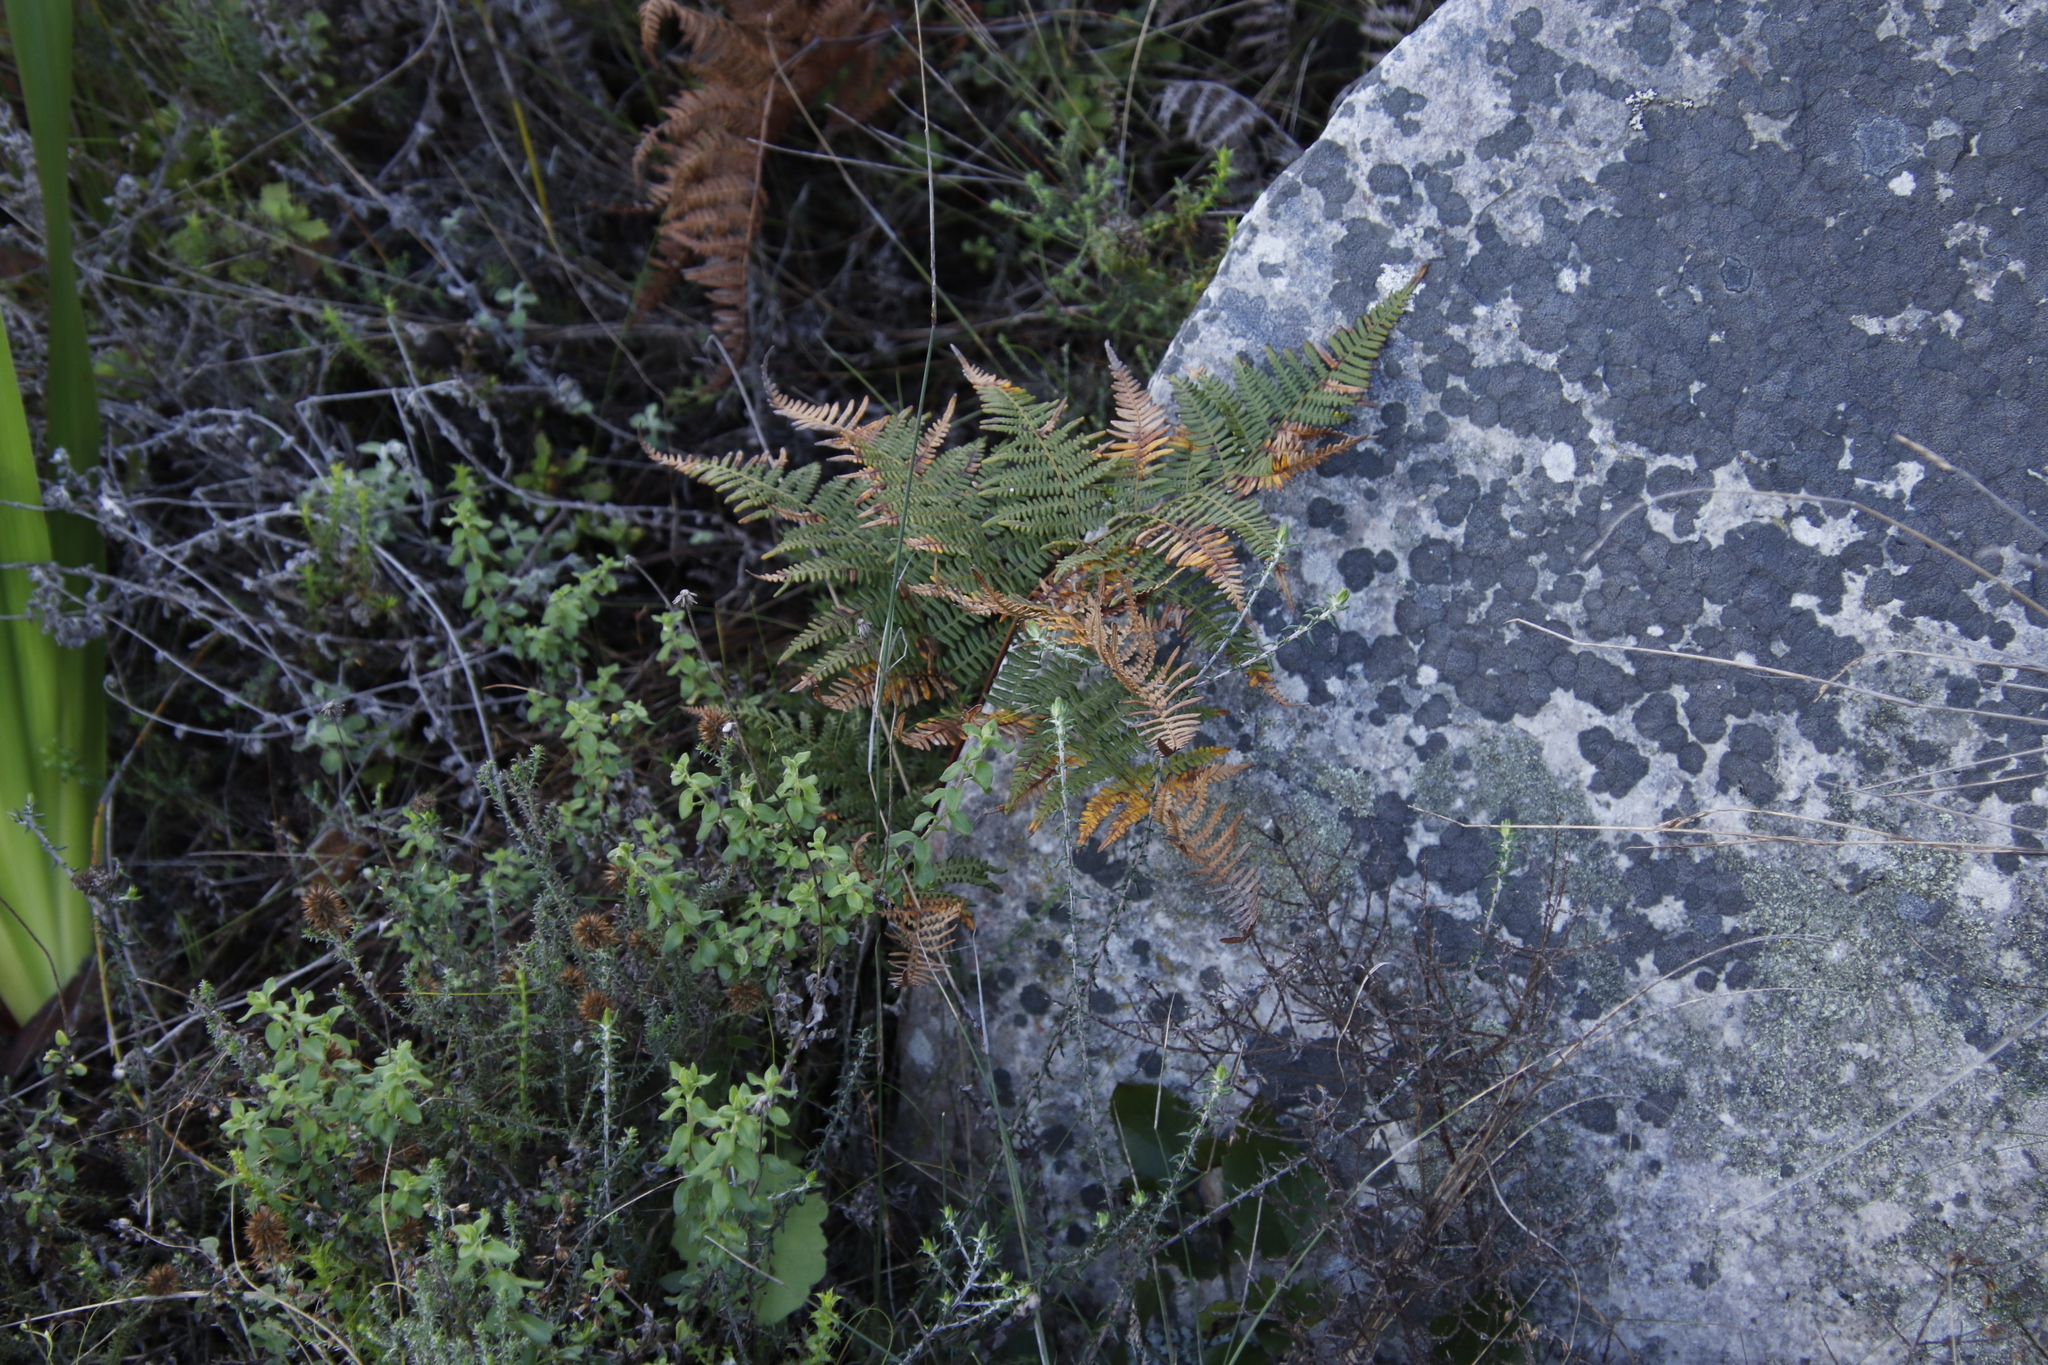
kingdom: Plantae
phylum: Tracheophyta
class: Polypodiopsida
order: Polypodiales
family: Dennstaedtiaceae
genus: Pteridium
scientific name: Pteridium aquilinum
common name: Bracken
